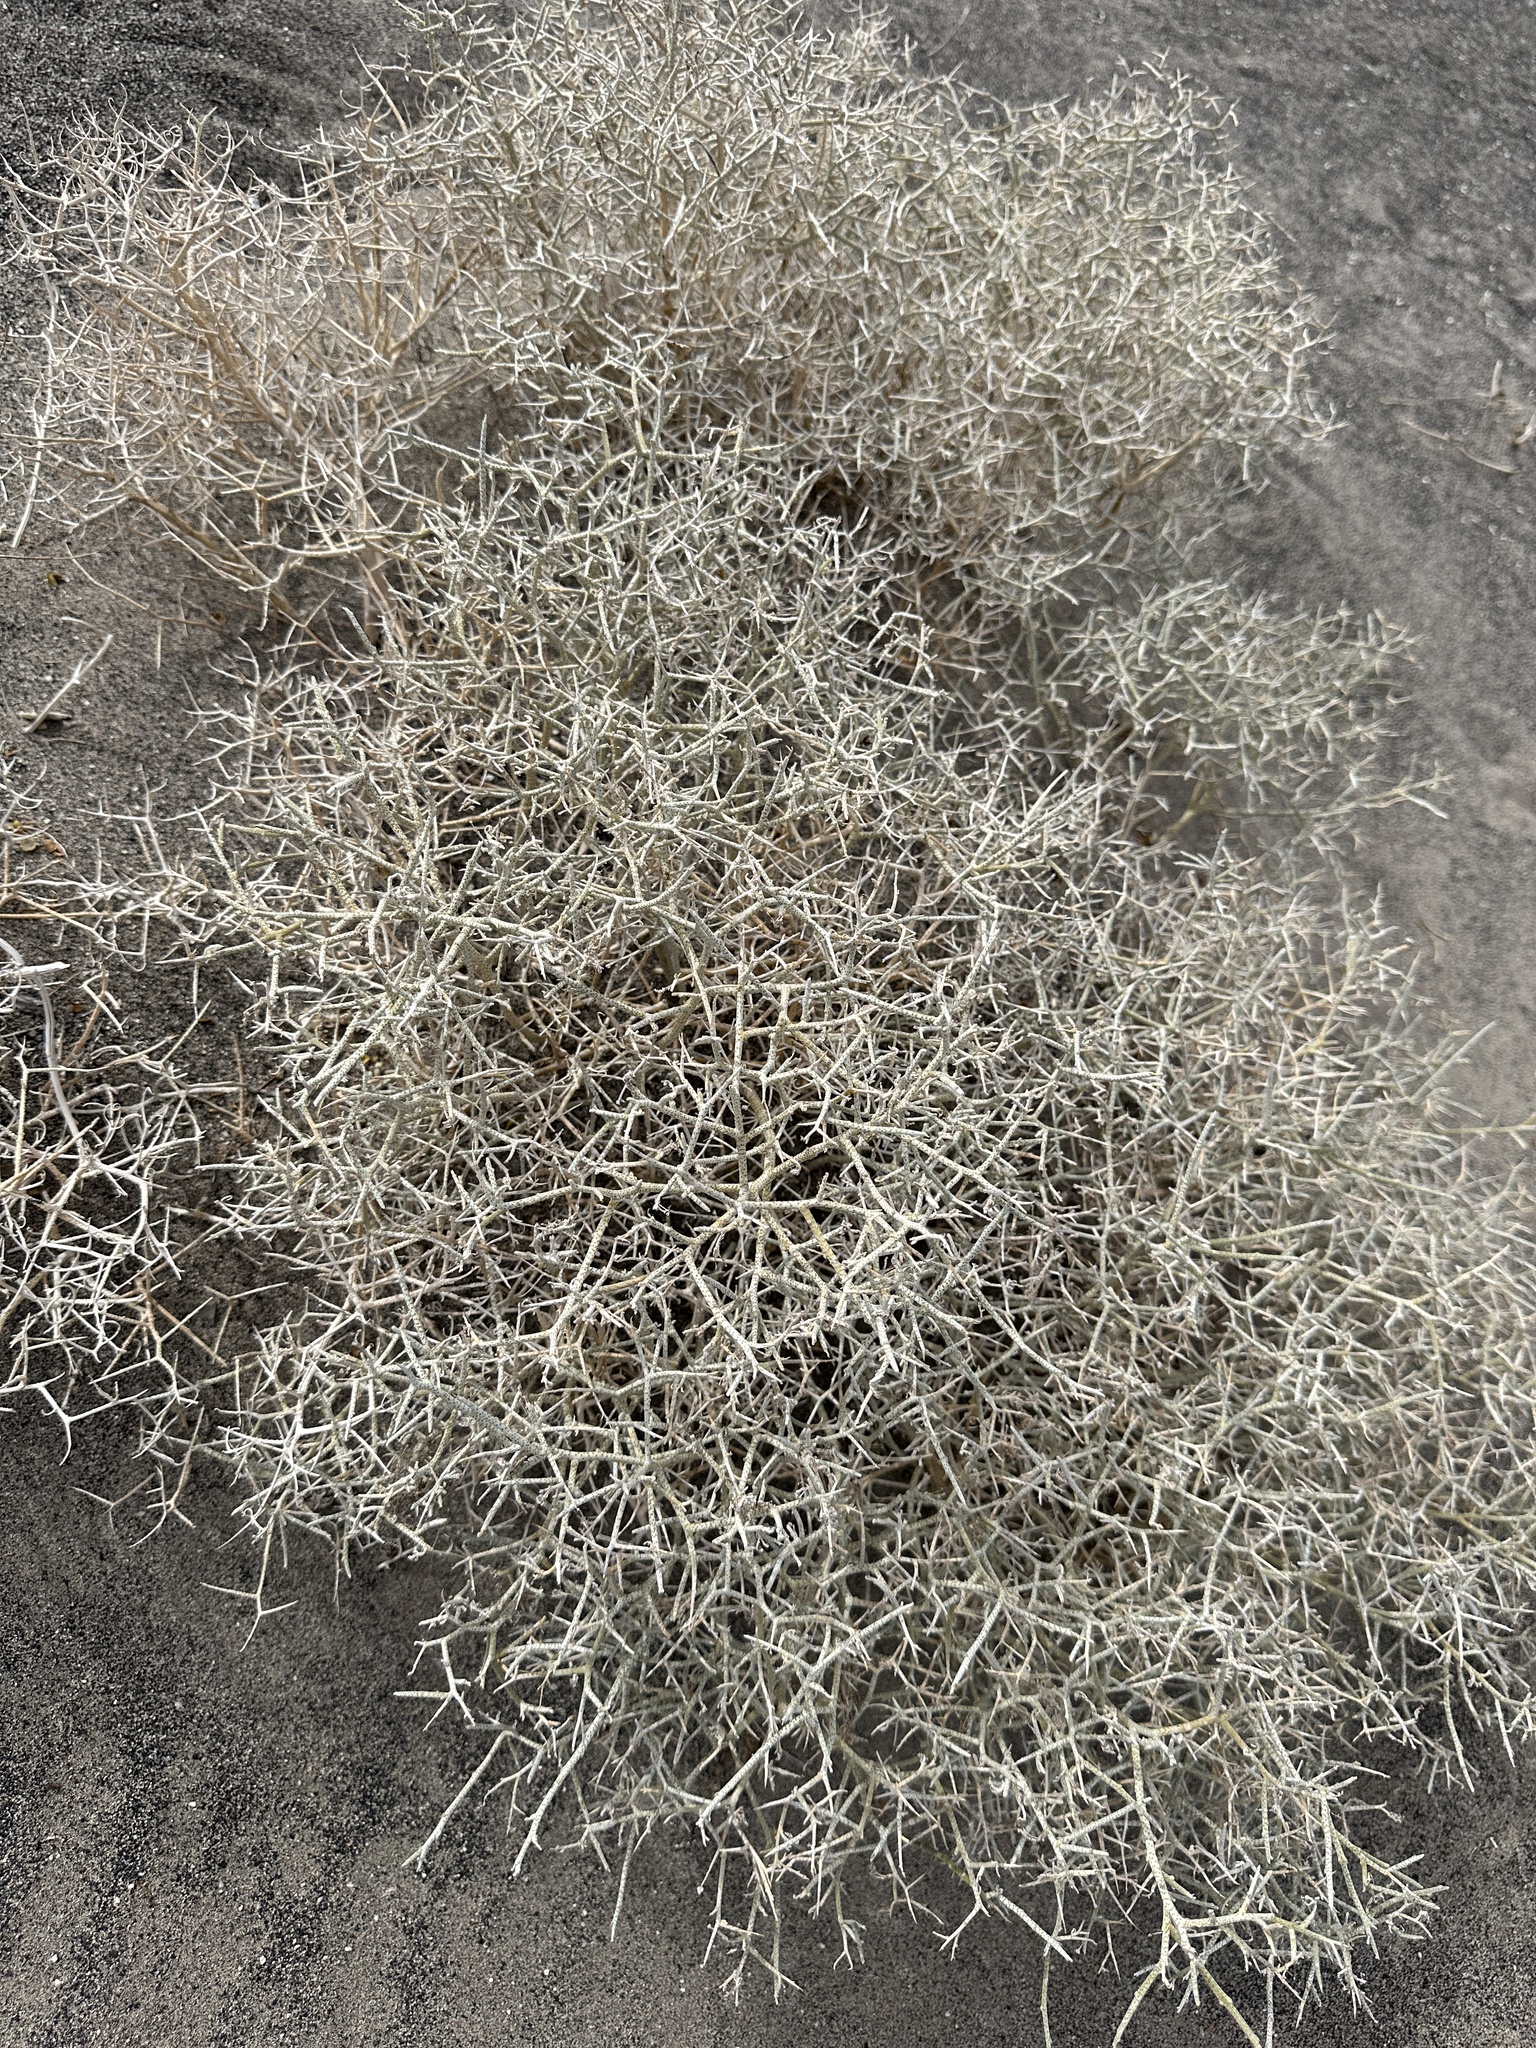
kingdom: Plantae
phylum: Tracheophyta
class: Magnoliopsida
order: Fabales
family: Fabaceae
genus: Psorothamnus
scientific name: Psorothamnus polydenius
